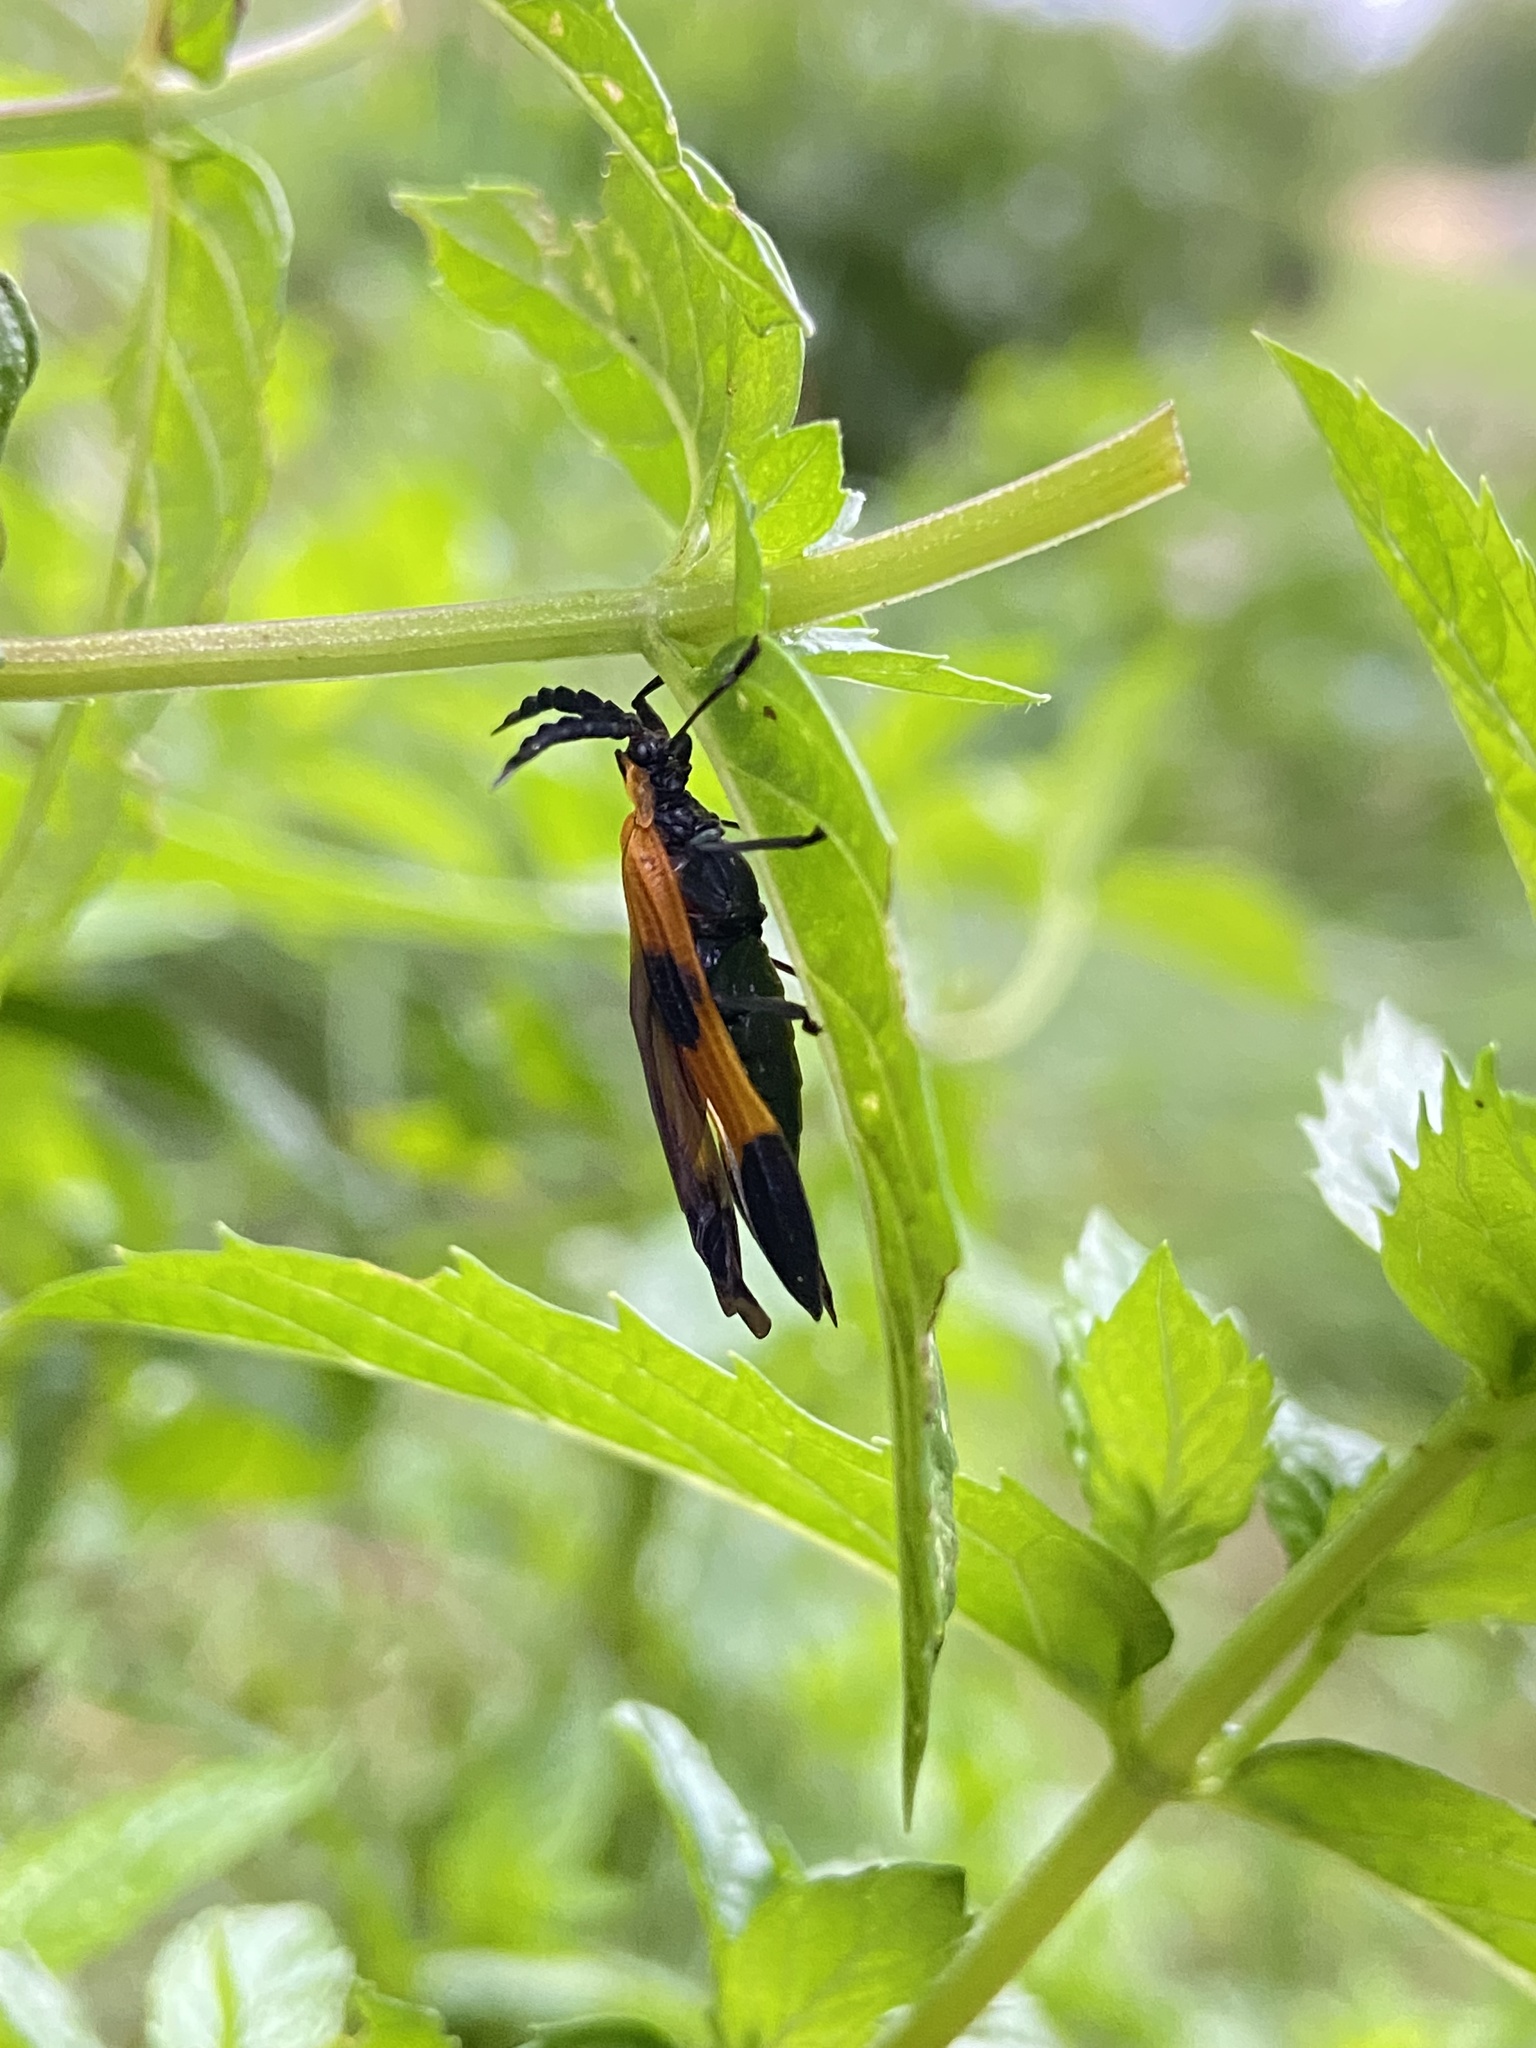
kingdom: Animalia
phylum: Arthropoda
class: Insecta
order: Coleoptera
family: Lycidae
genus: Calopteron
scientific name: Calopteron terminale
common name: End band net-winged beetle
